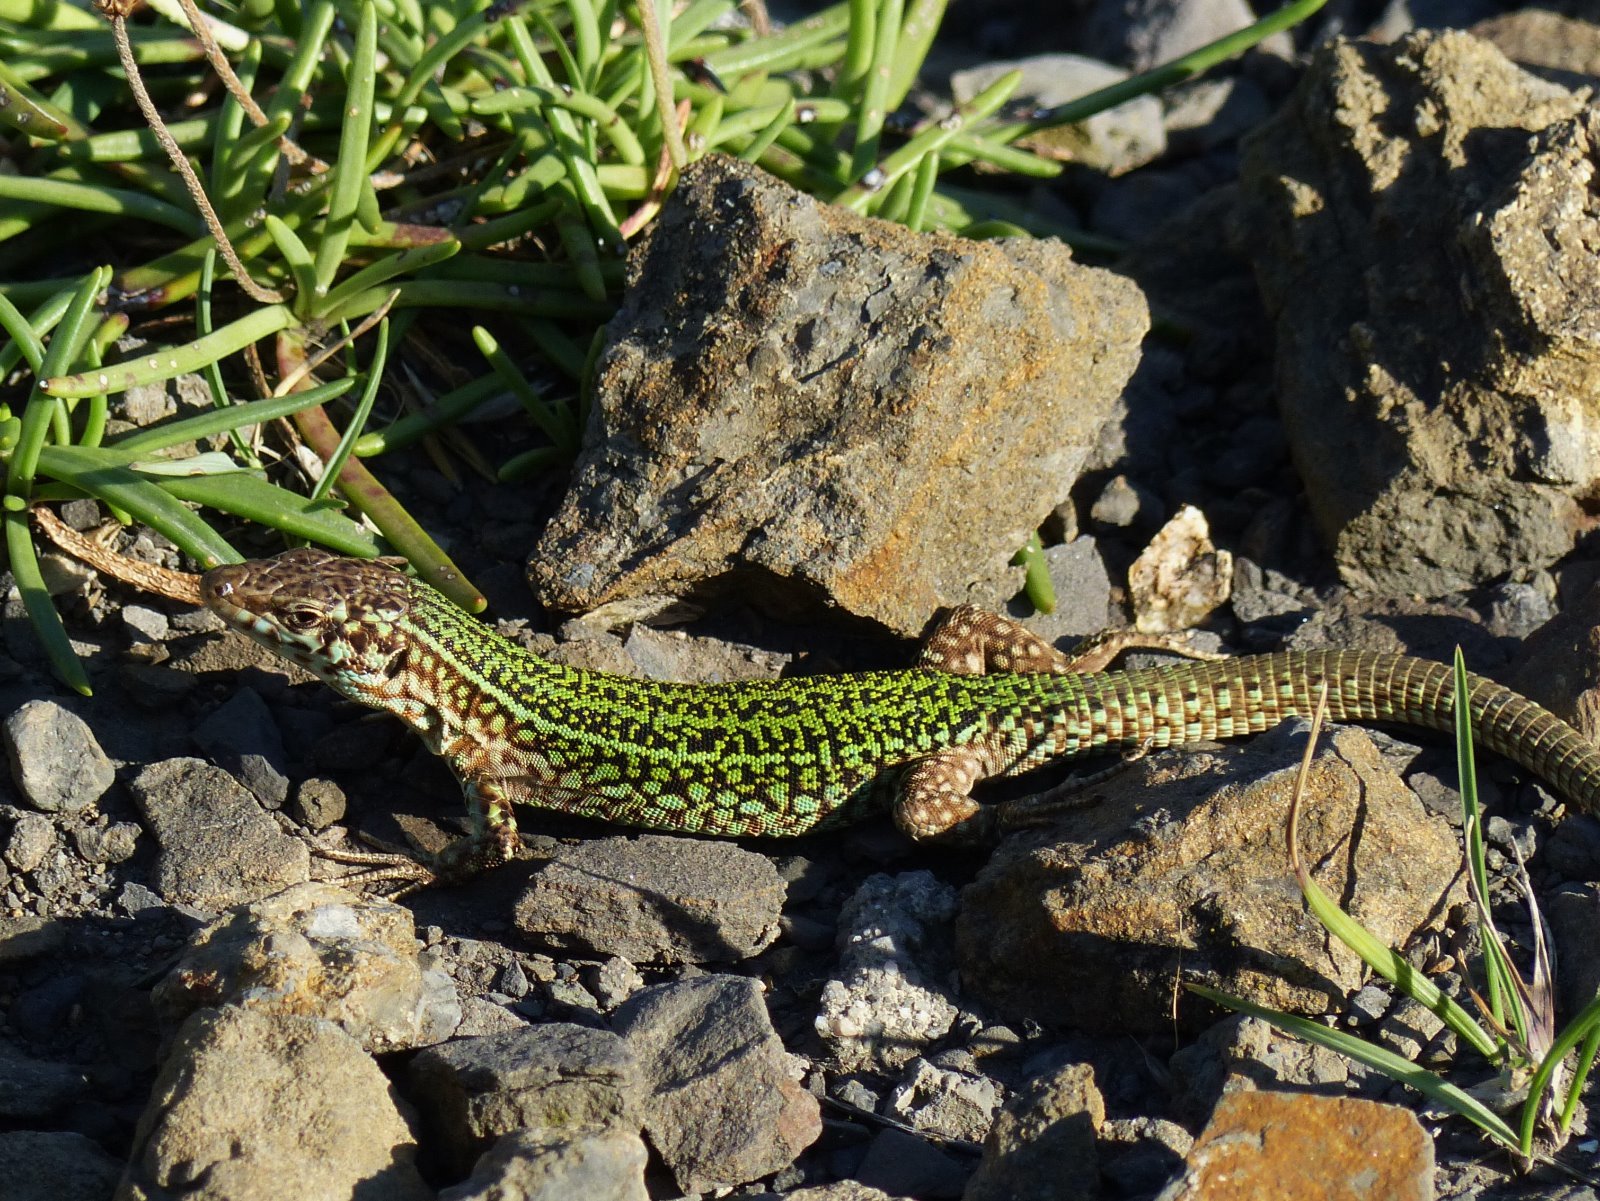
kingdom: Animalia
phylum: Chordata
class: Squamata
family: Lacertidae
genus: Podarcis
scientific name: Podarcis pityusensis
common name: Ibiza wall lizard
